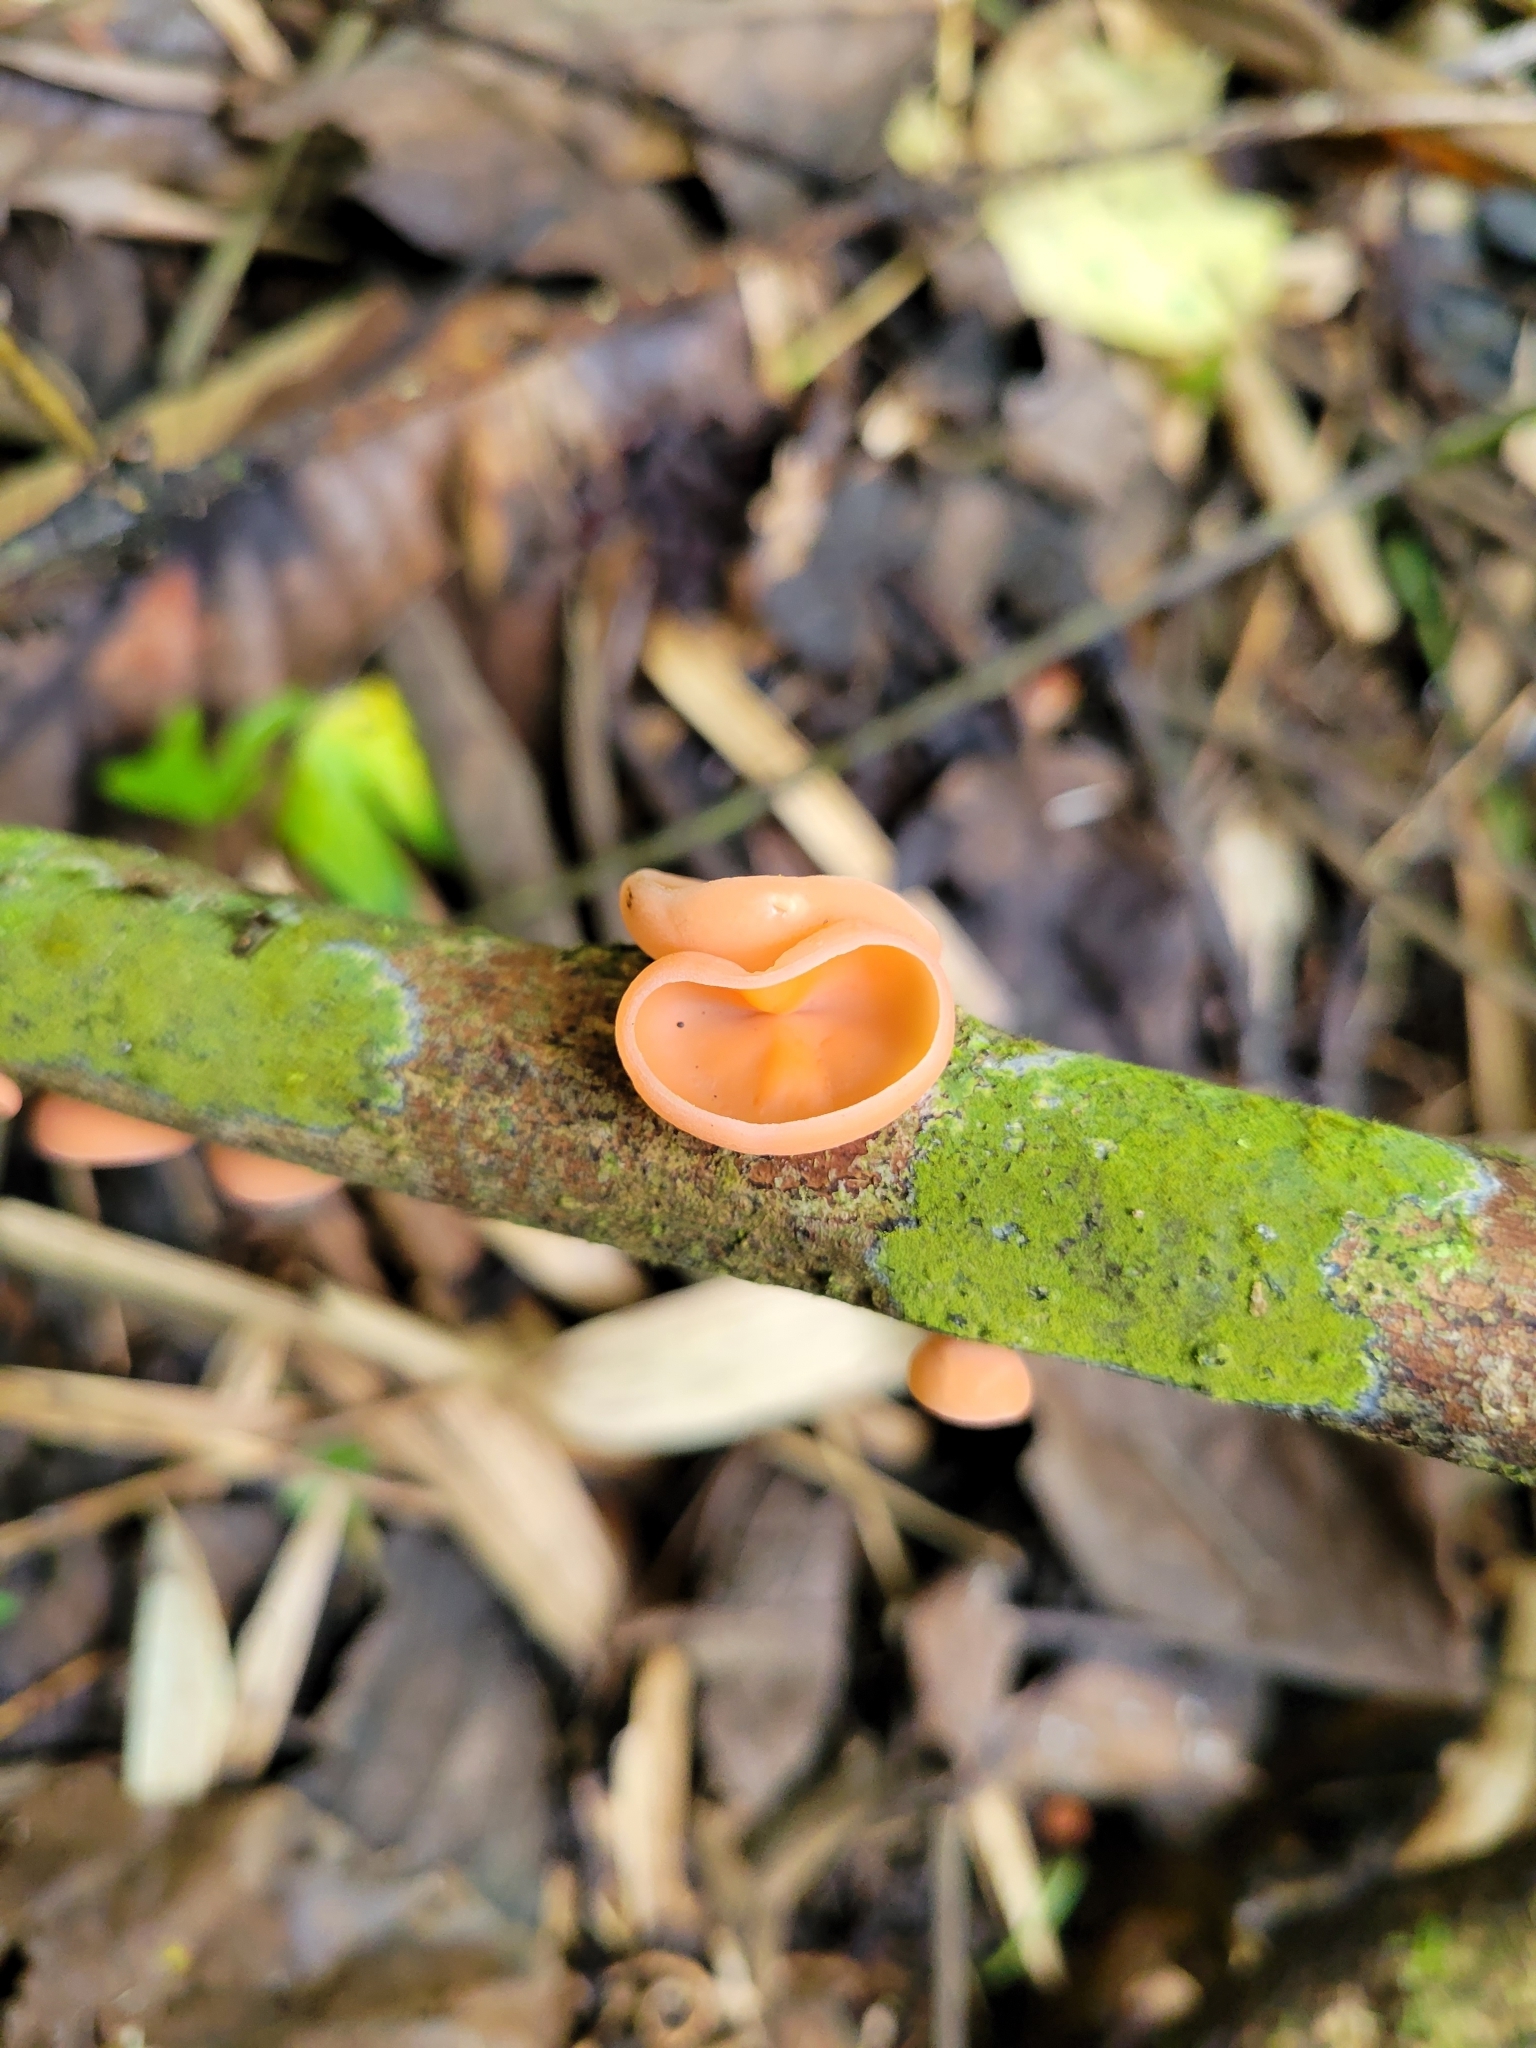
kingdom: Fungi
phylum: Ascomycota
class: Pezizomycetes
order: Pezizales
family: Sarcoscyphaceae
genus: Cookeina
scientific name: Cookeina venezuelae
